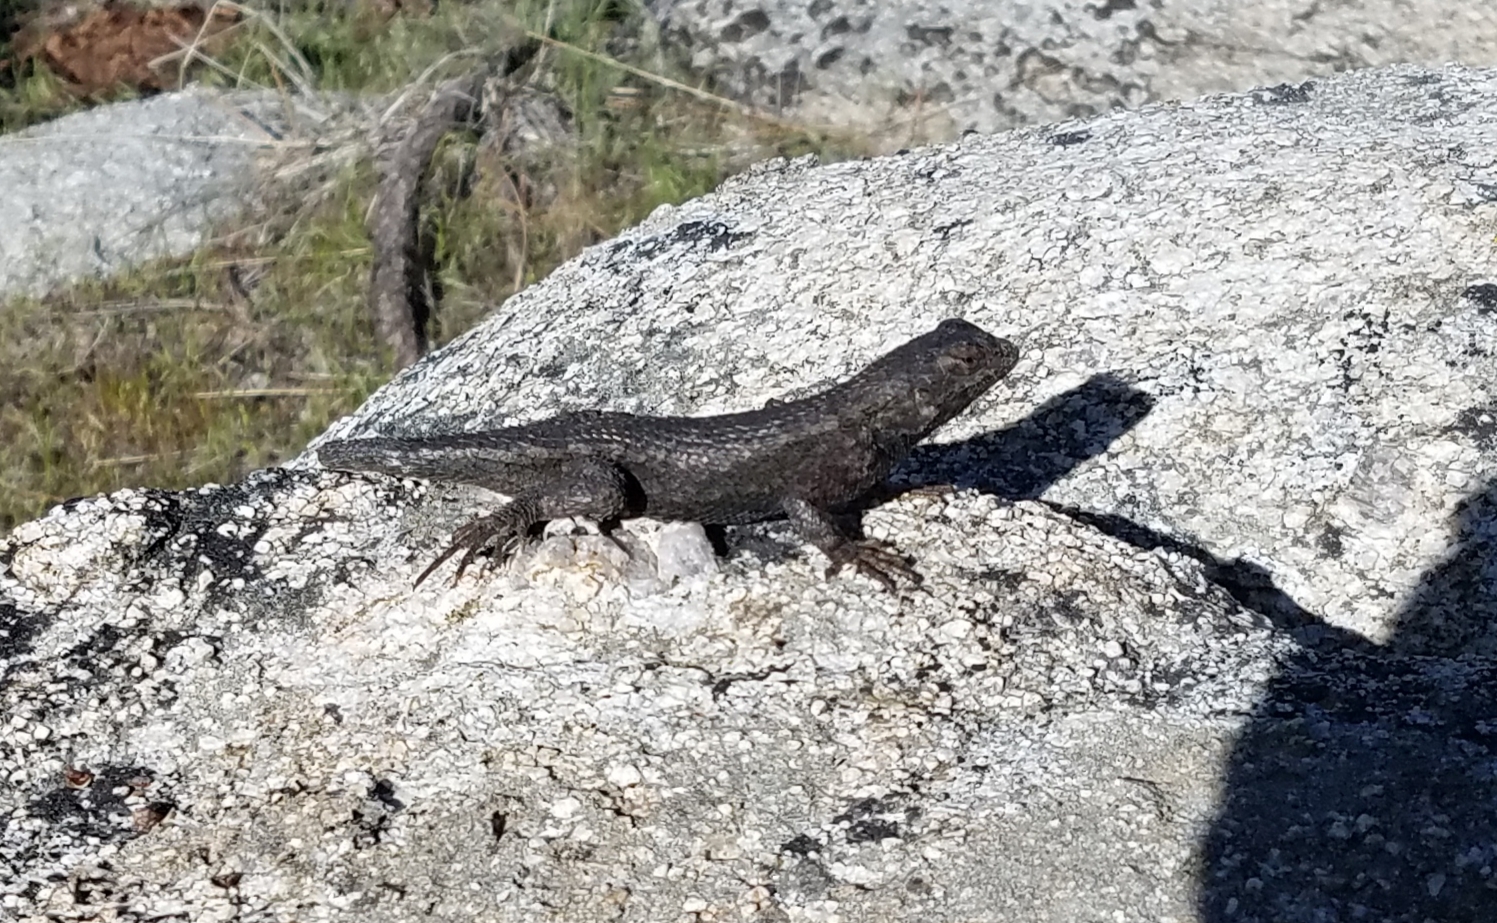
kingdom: Animalia
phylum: Chordata
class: Squamata
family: Phrynosomatidae
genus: Sceloporus
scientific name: Sceloporus occidentalis
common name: Western fence lizard
